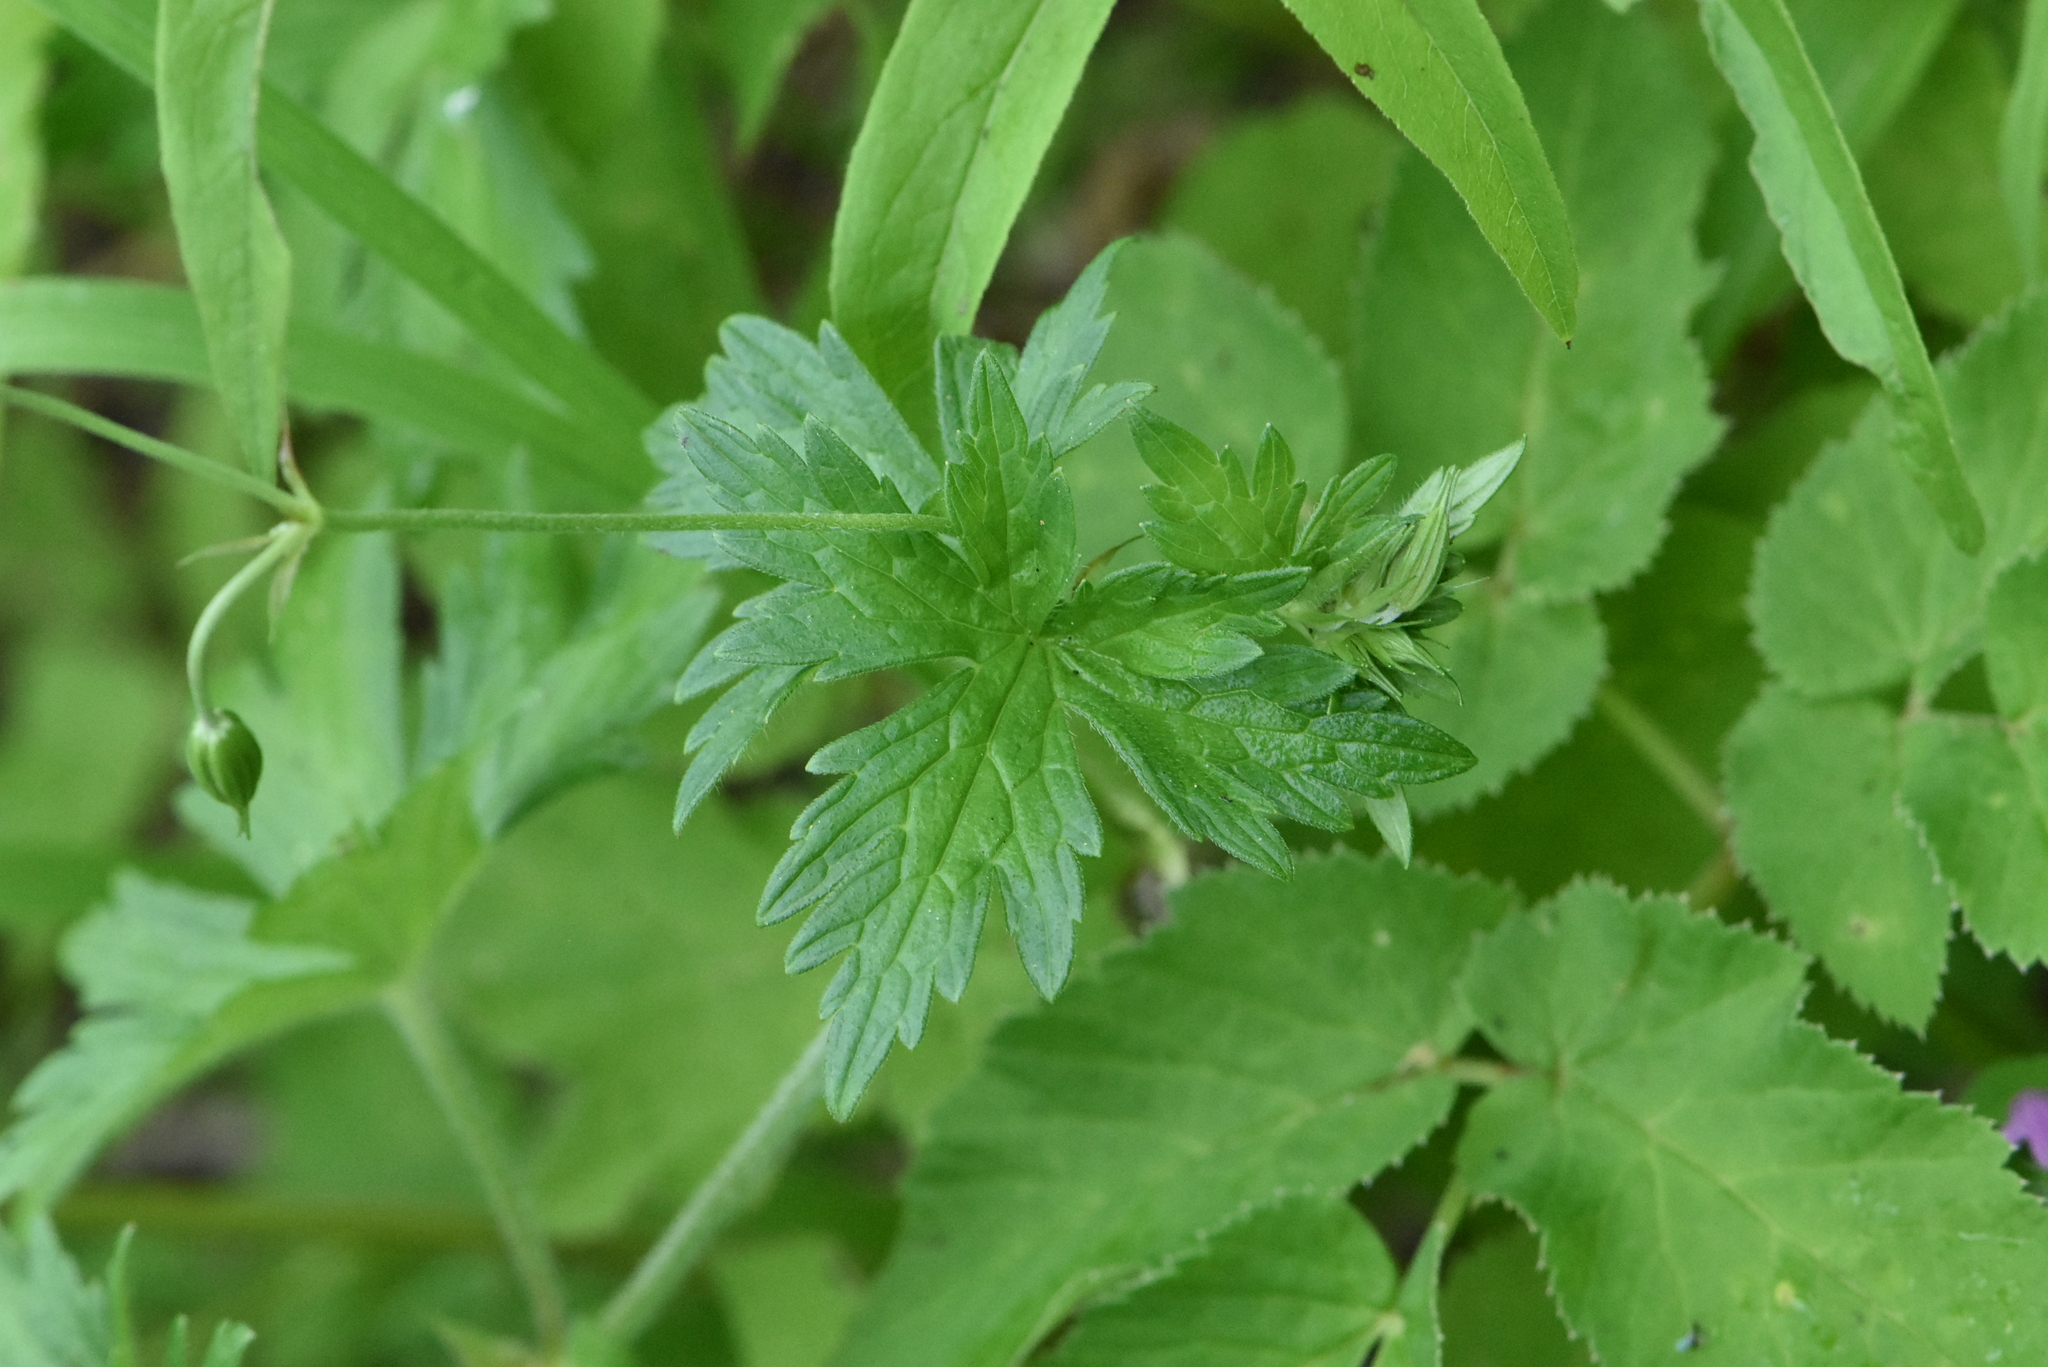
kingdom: Plantae
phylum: Tracheophyta
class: Magnoliopsida
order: Geraniales
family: Geraniaceae
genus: Geranium
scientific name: Geranium palustre
